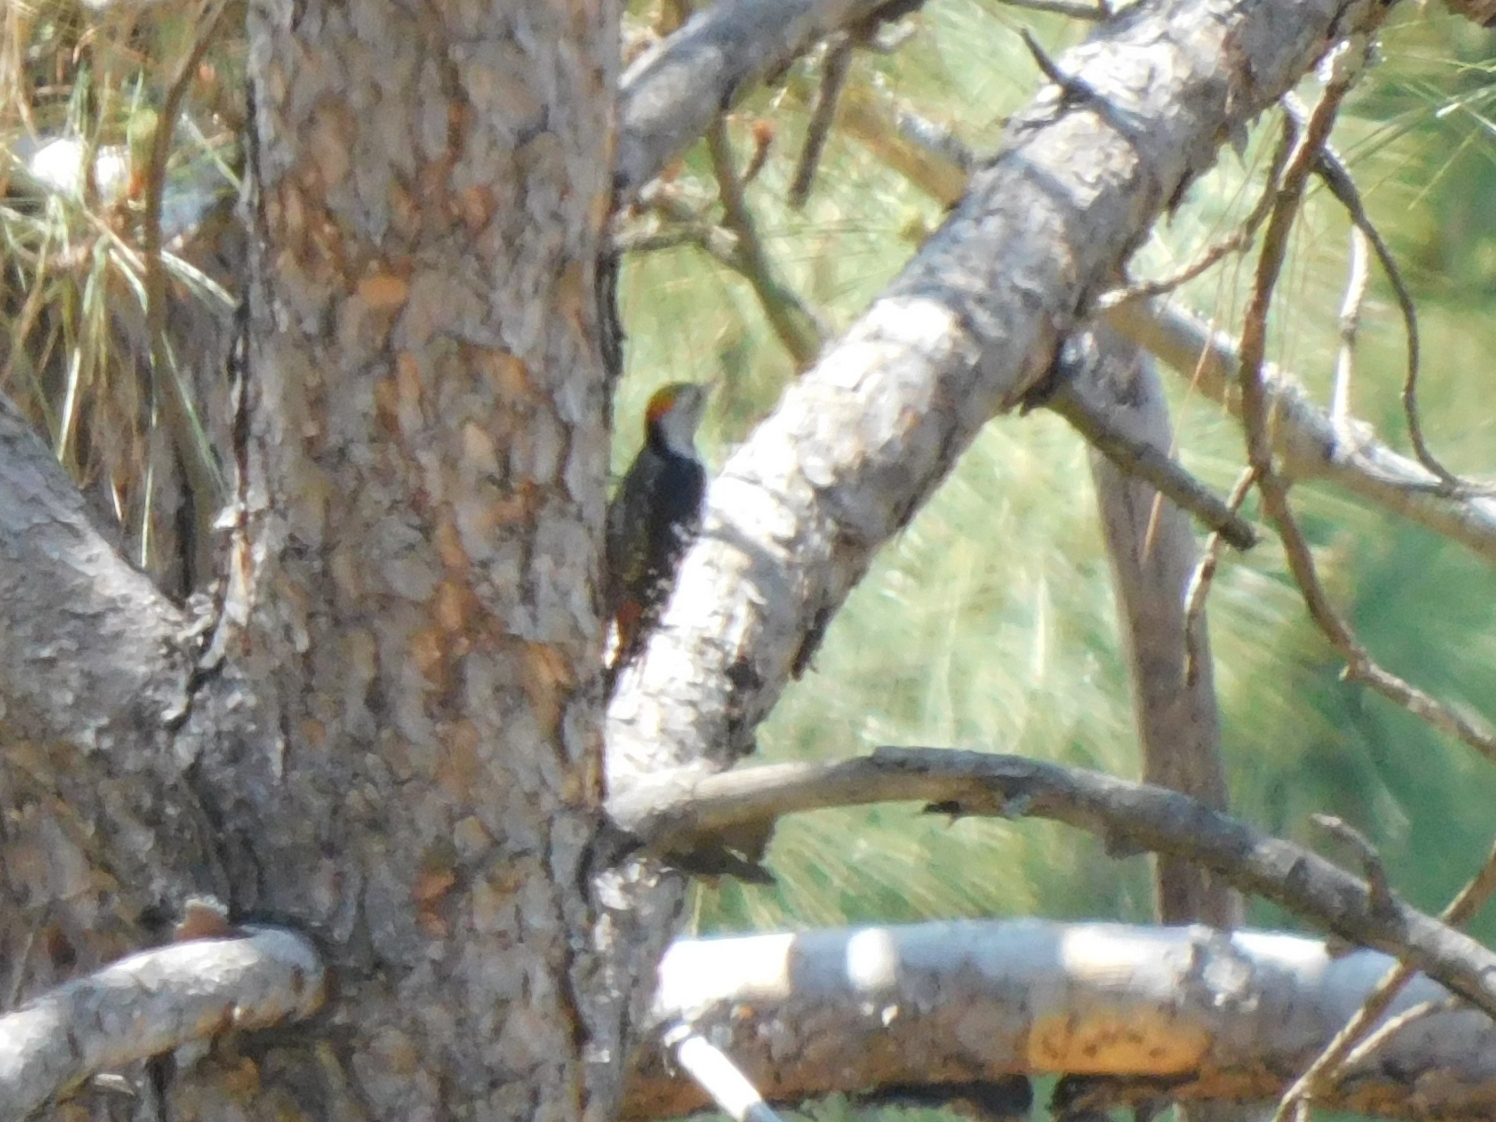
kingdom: Animalia
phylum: Chordata
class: Aves
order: Piciformes
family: Picidae
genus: Dendrocoptes
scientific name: Dendrocoptes auriceps
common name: Brown-fronted woodpecker
